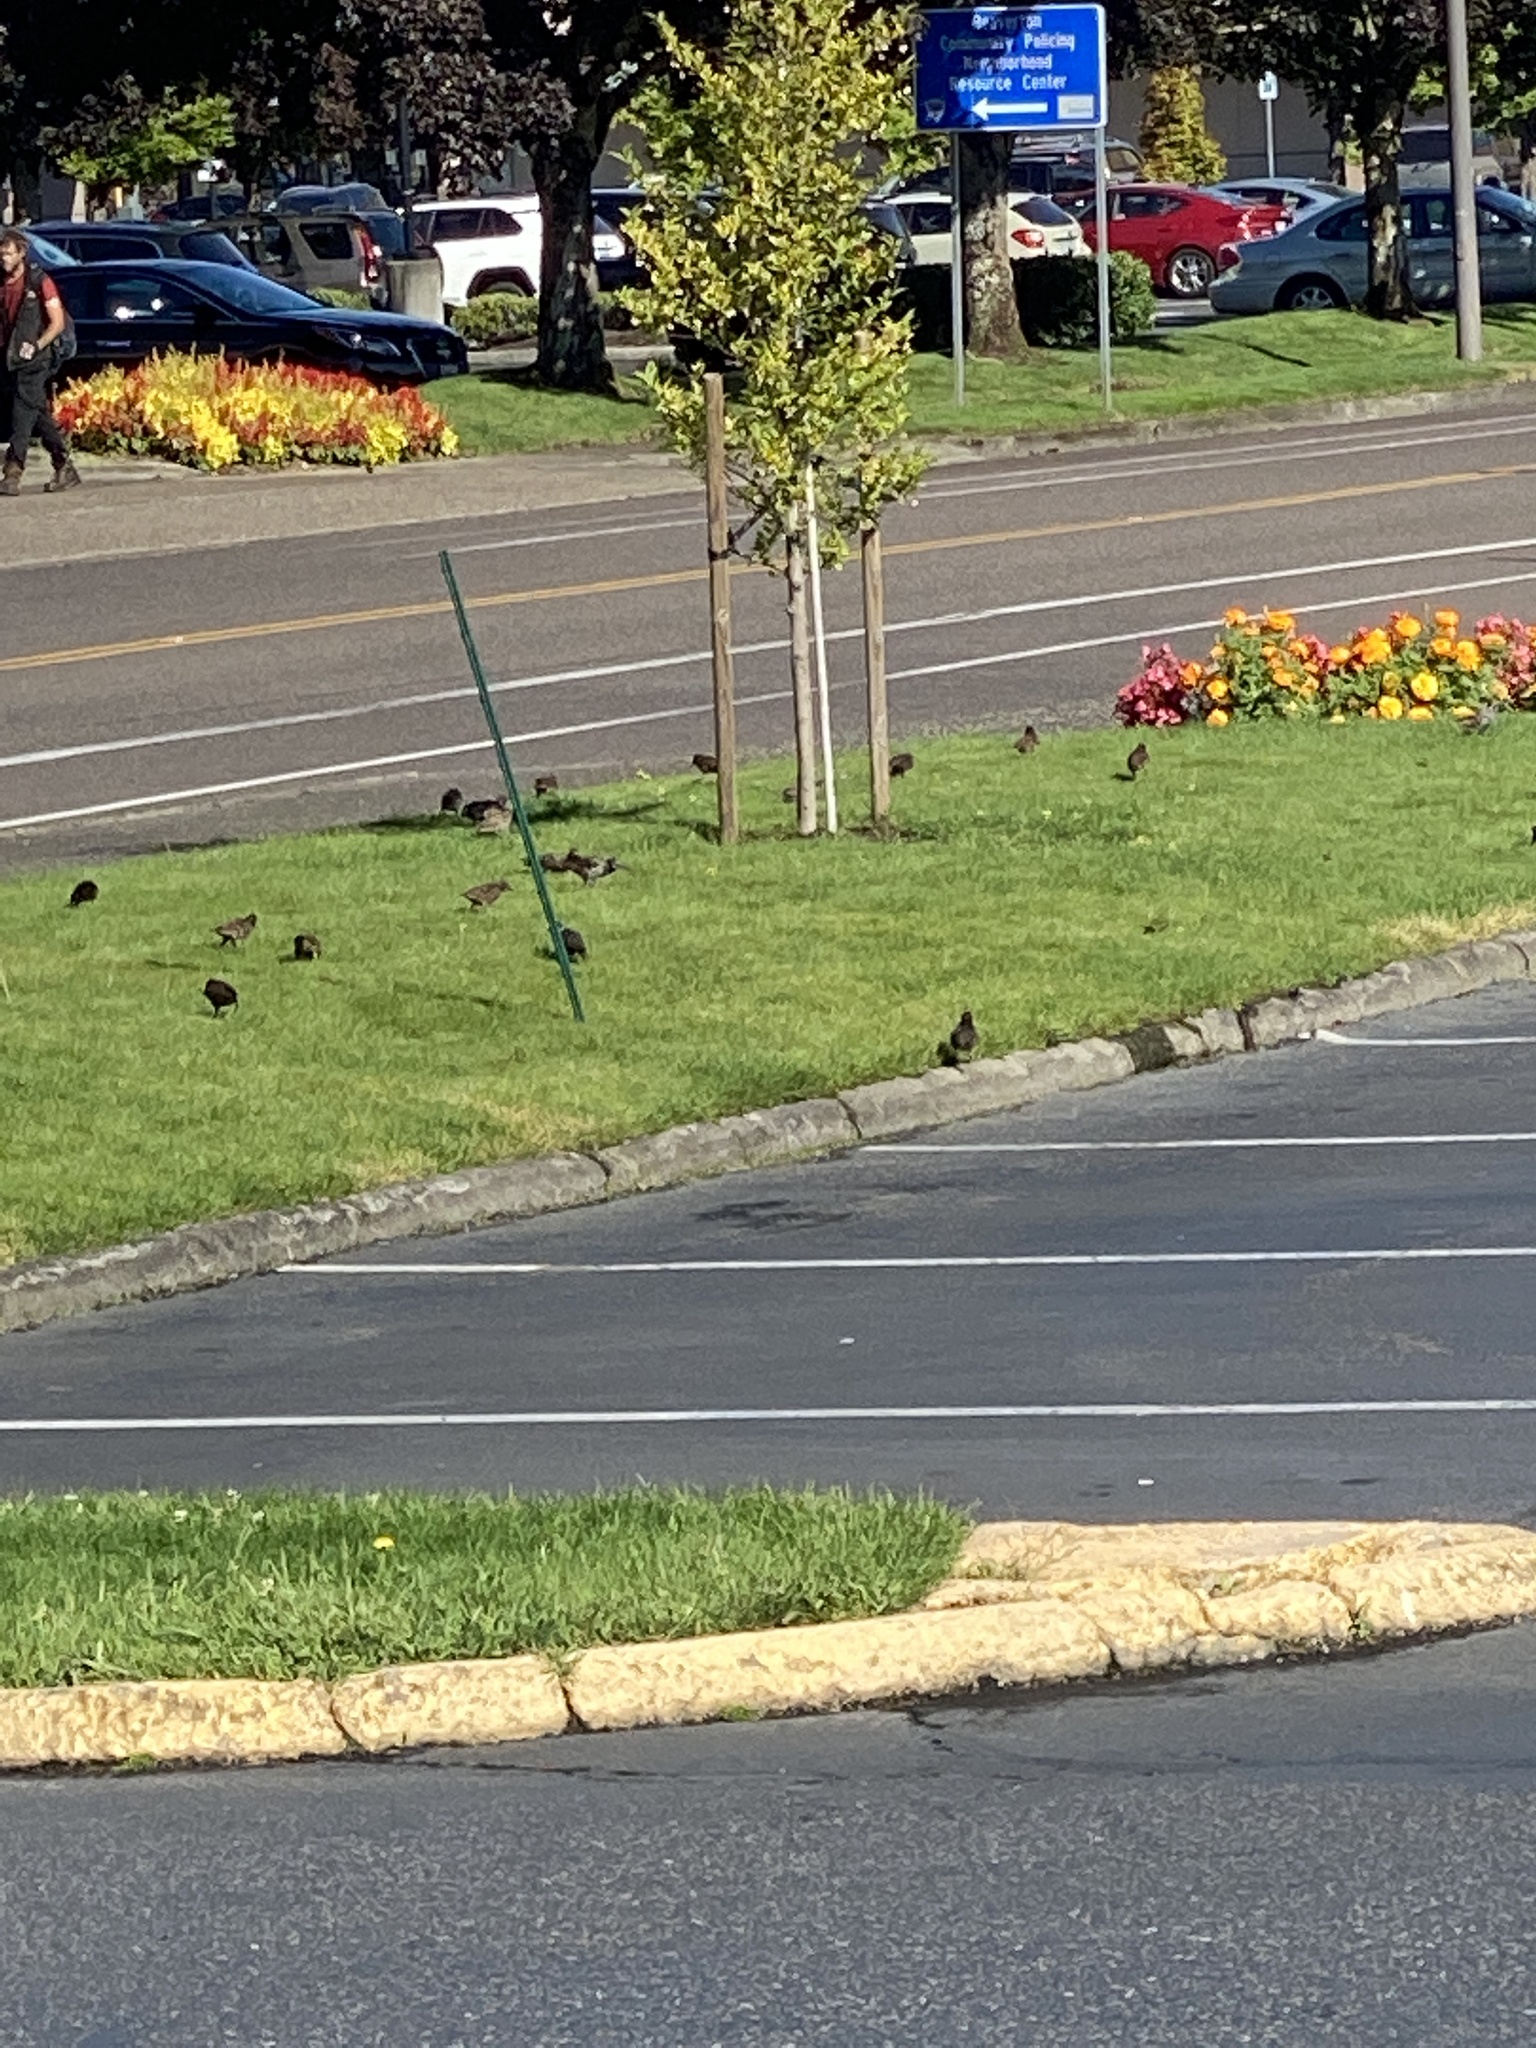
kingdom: Animalia
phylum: Chordata
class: Aves
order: Passeriformes
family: Sturnidae
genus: Sturnus
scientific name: Sturnus vulgaris
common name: Common starling
